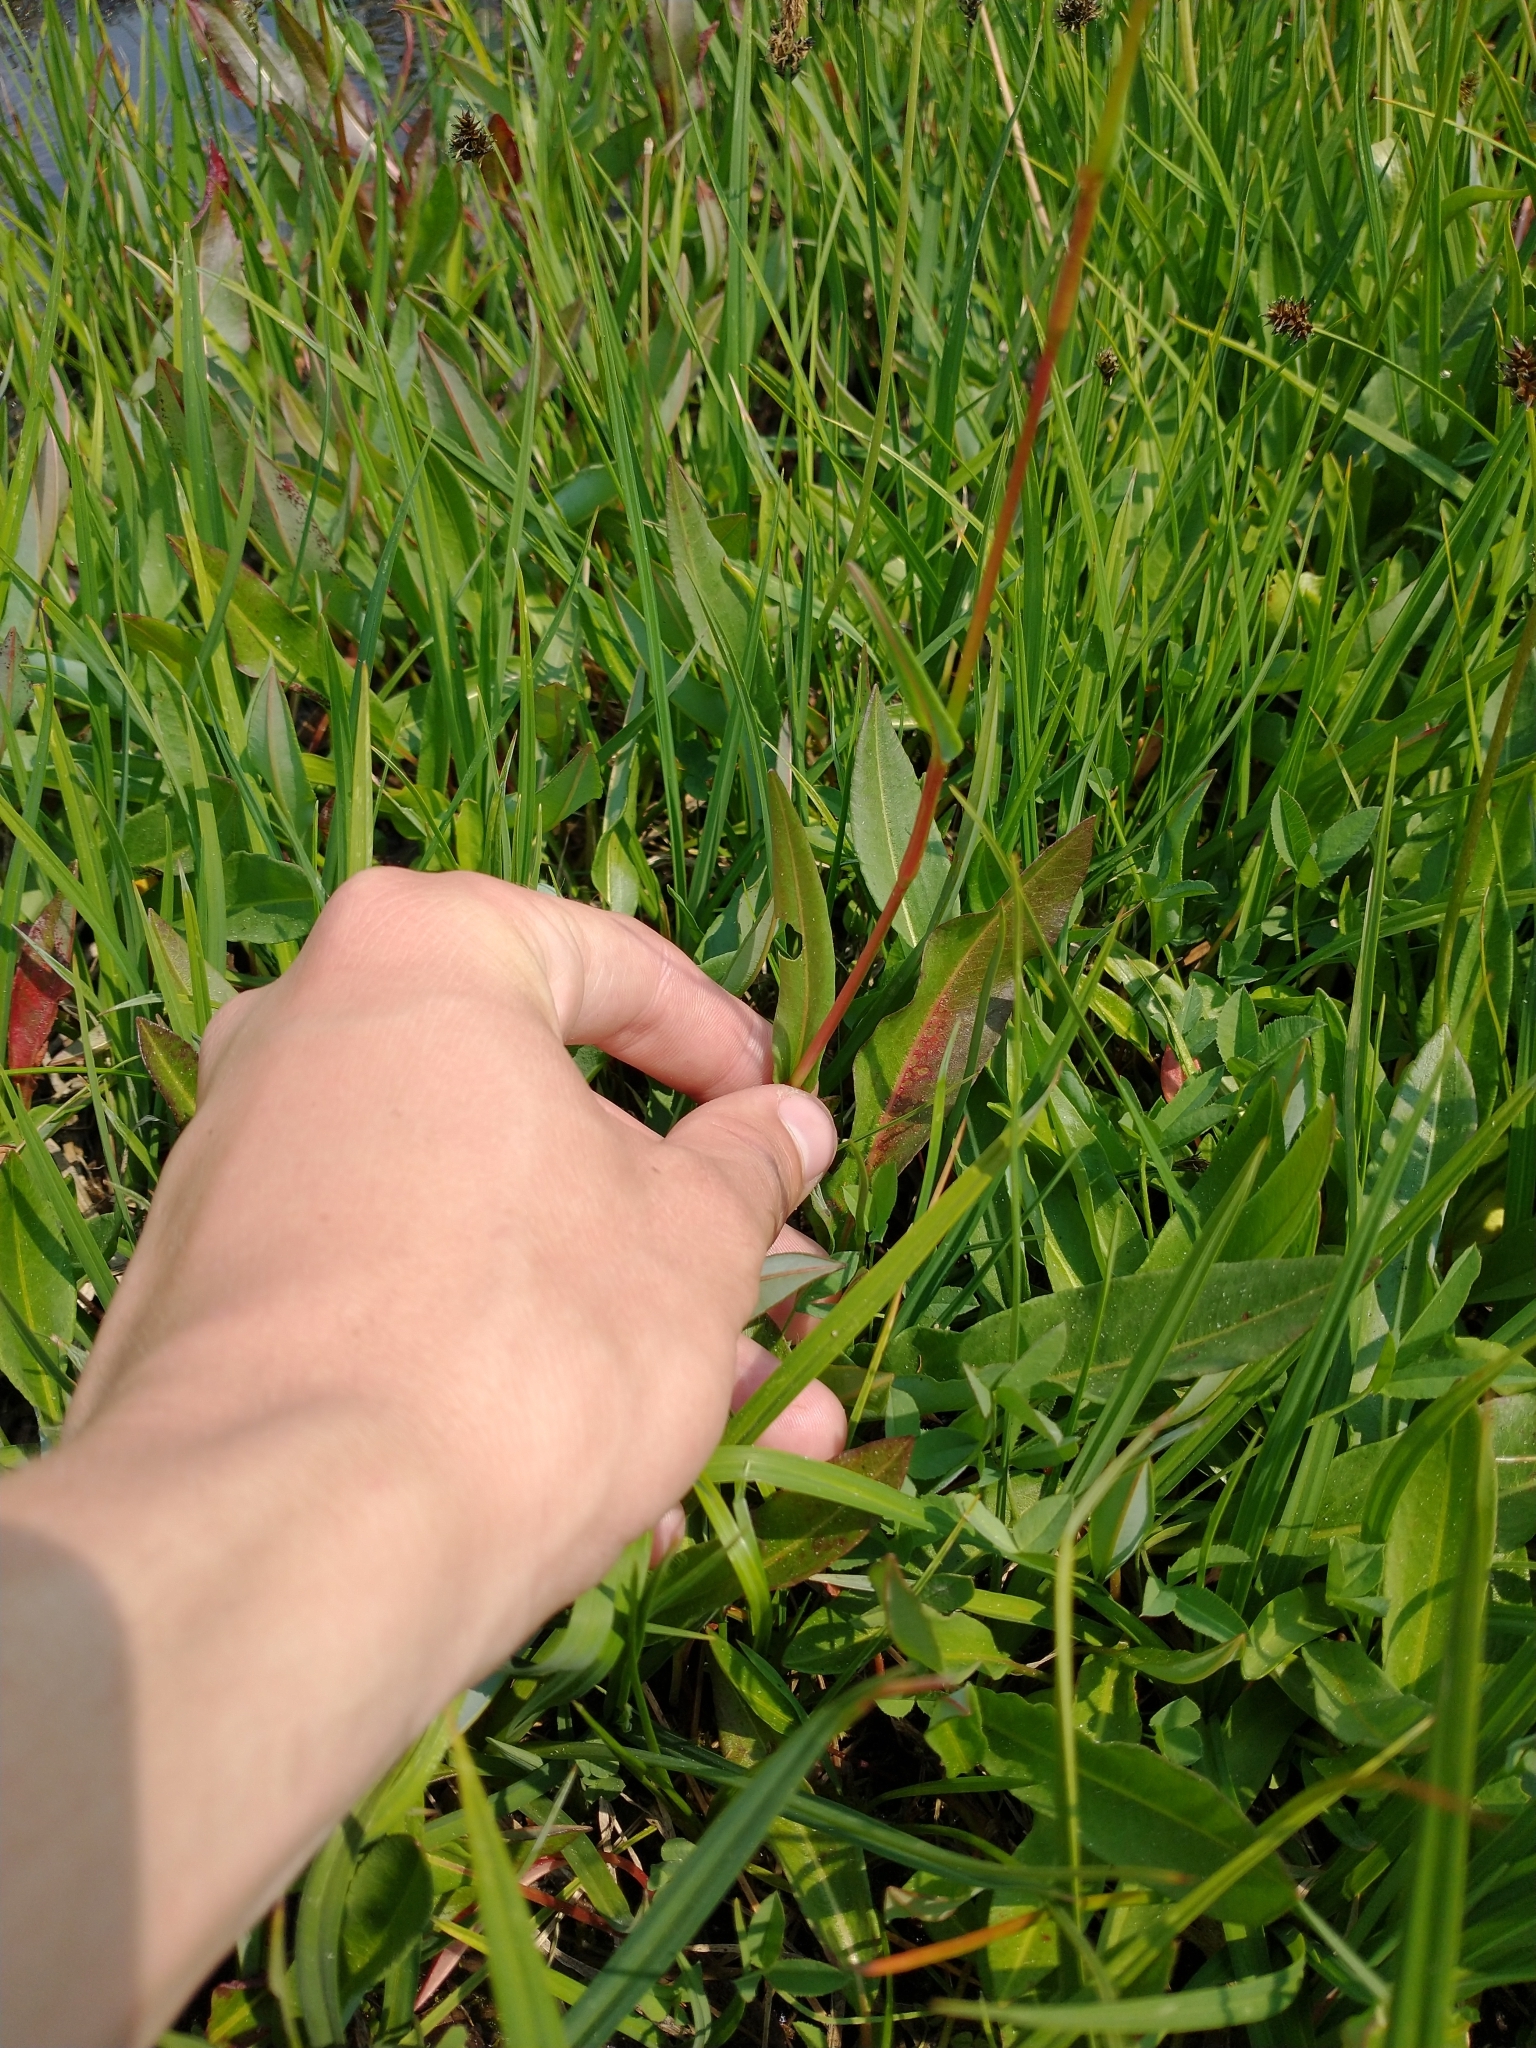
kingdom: Plantae
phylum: Tracheophyta
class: Magnoliopsida
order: Caryophyllales
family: Polygonaceae
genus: Bistorta
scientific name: Bistorta bistortoides
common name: American bistort
